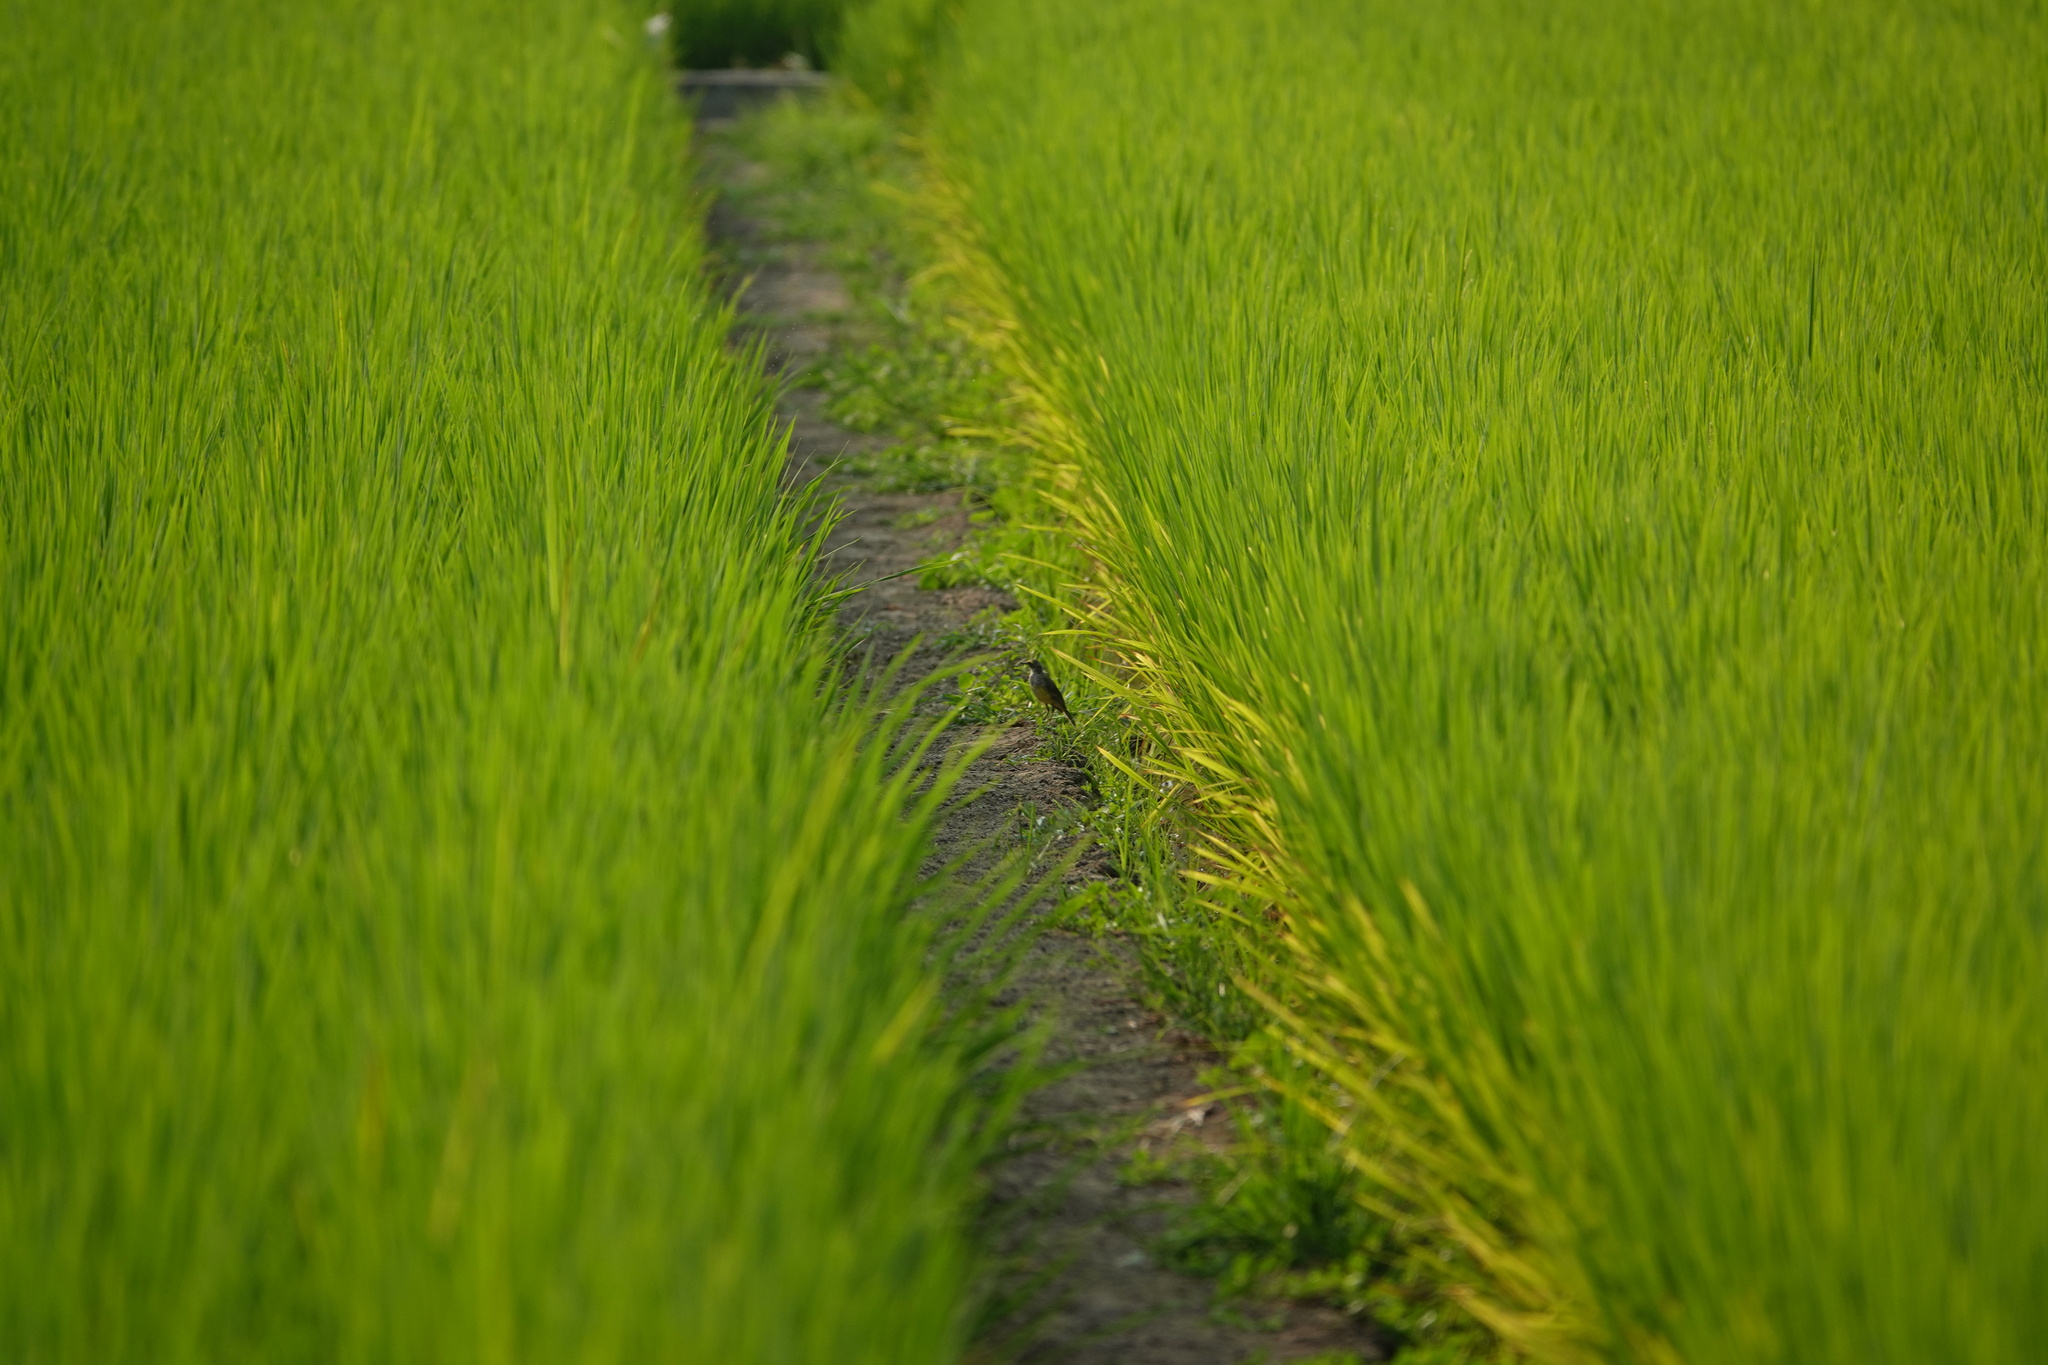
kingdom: Animalia
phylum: Chordata
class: Aves
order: Passeriformes
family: Motacillidae
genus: Motacilla
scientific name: Motacilla tschutschensis
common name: Eastern yellow wagtail
